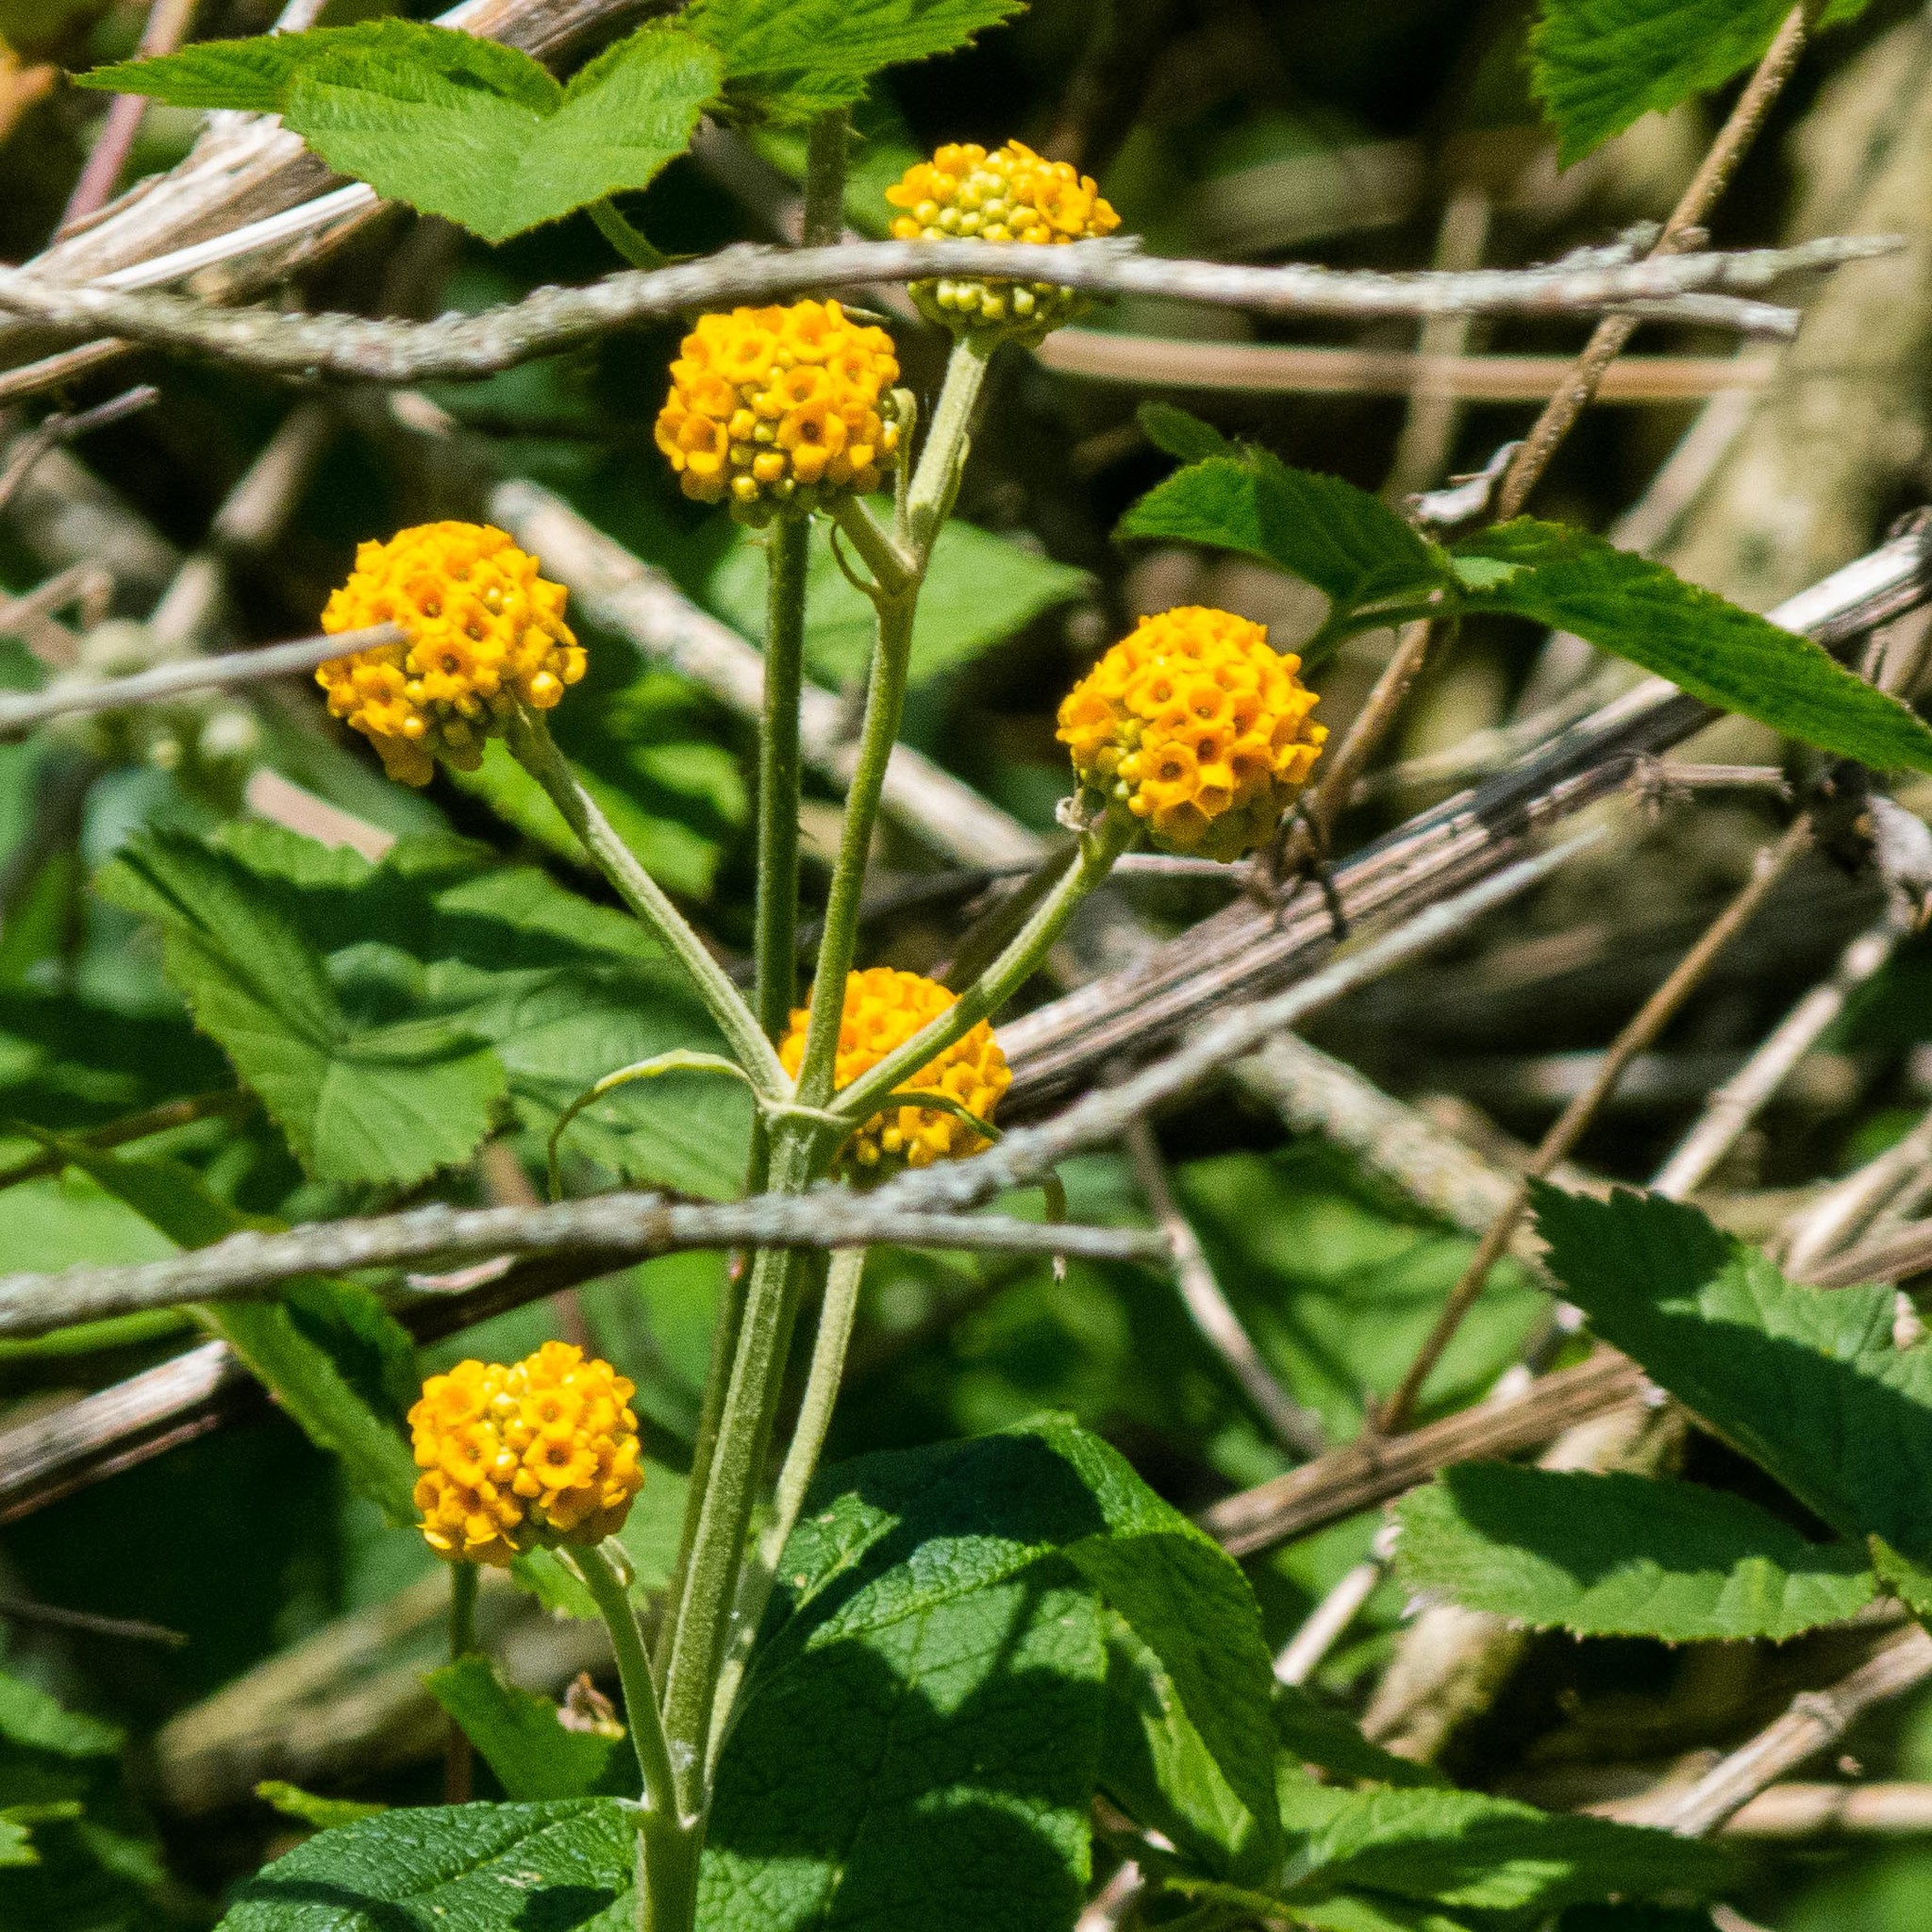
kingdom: Plantae
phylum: Tracheophyta
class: Magnoliopsida
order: Lamiales
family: Scrophulariaceae
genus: Buddleja
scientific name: Buddleja globosa
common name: Orange-ball-tree
